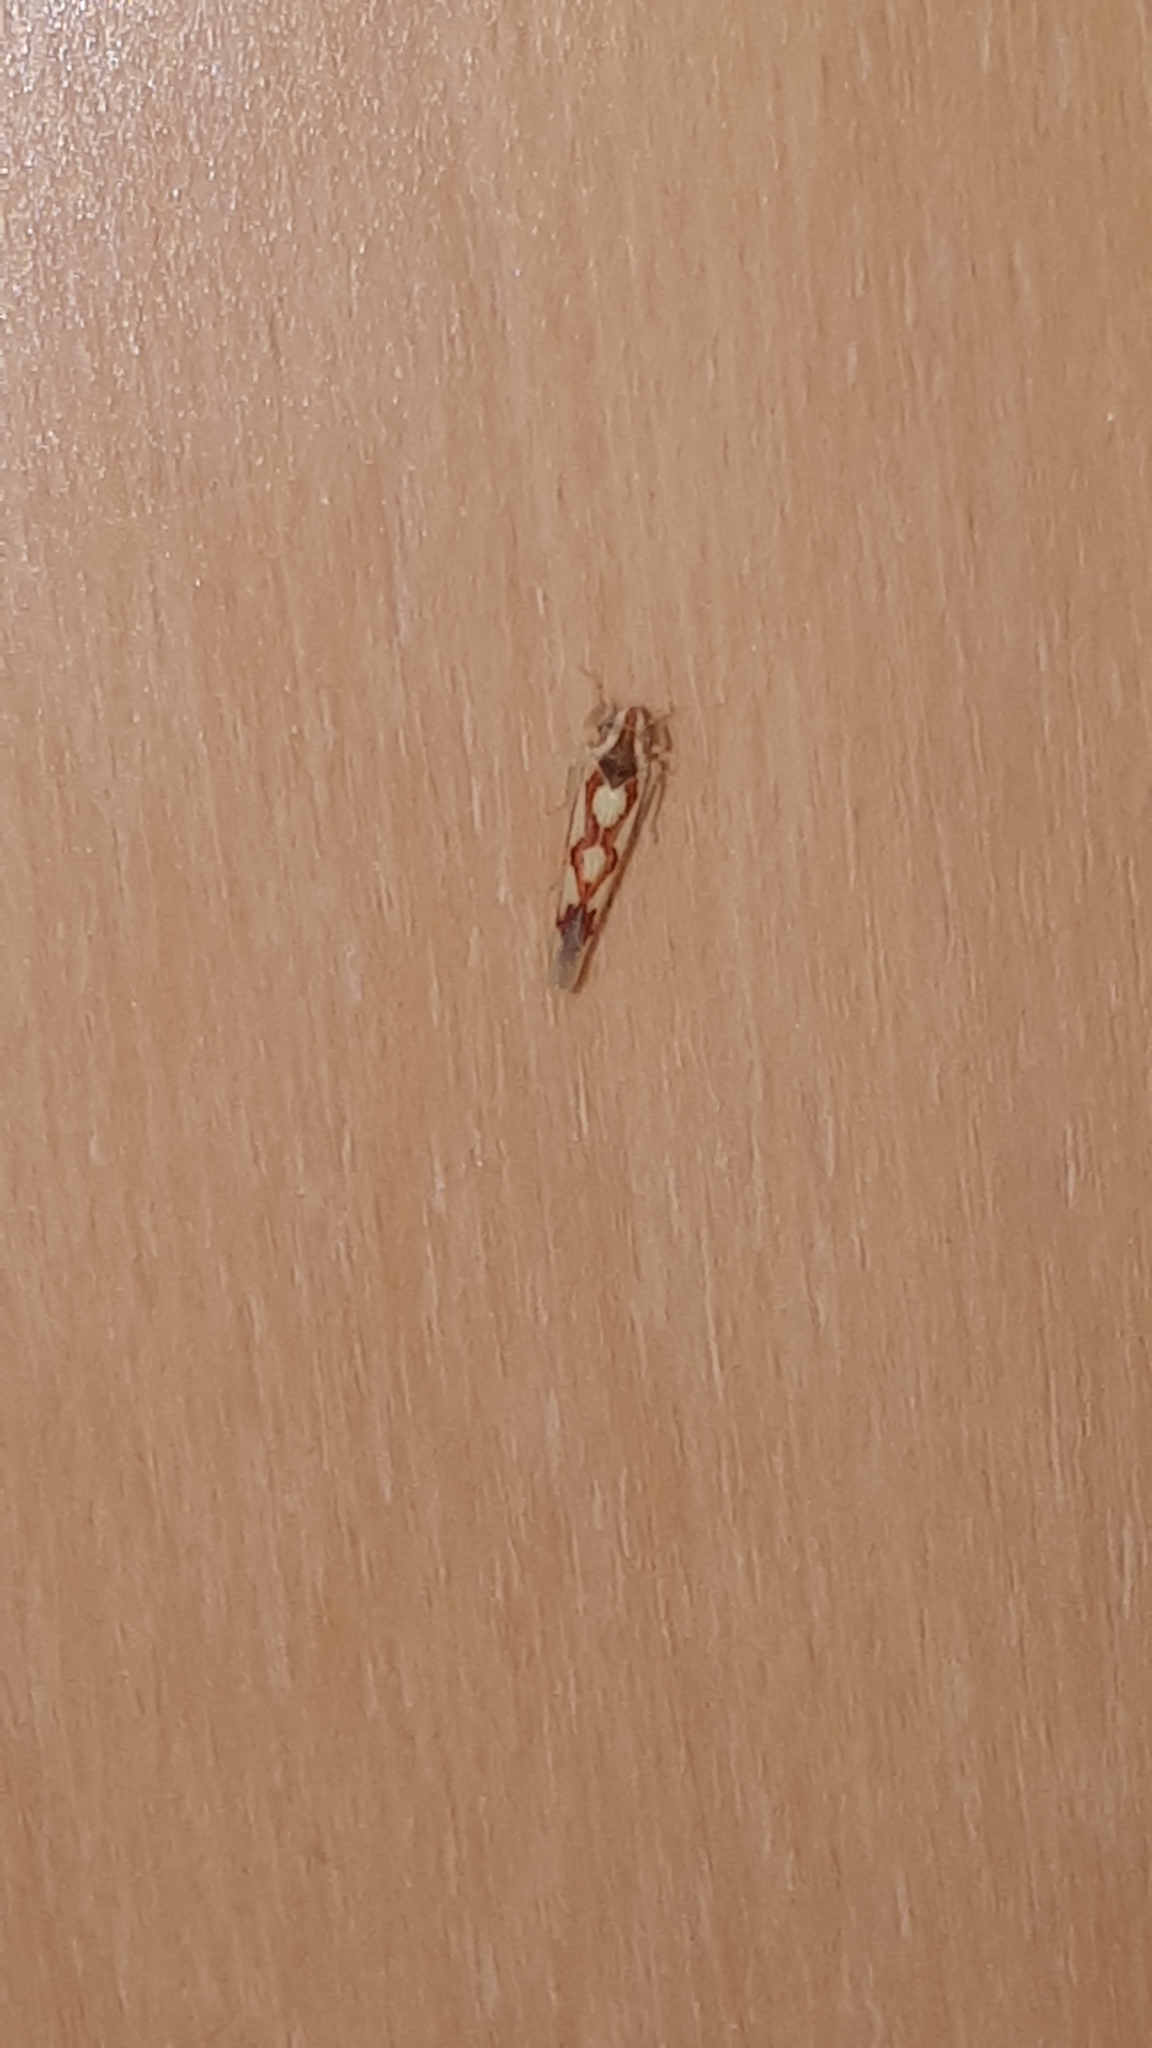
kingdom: Animalia
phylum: Arthropoda
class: Insecta
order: Hemiptera
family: Cicadellidae
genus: Zygina
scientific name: Zygina flammigera
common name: Leafhopper
